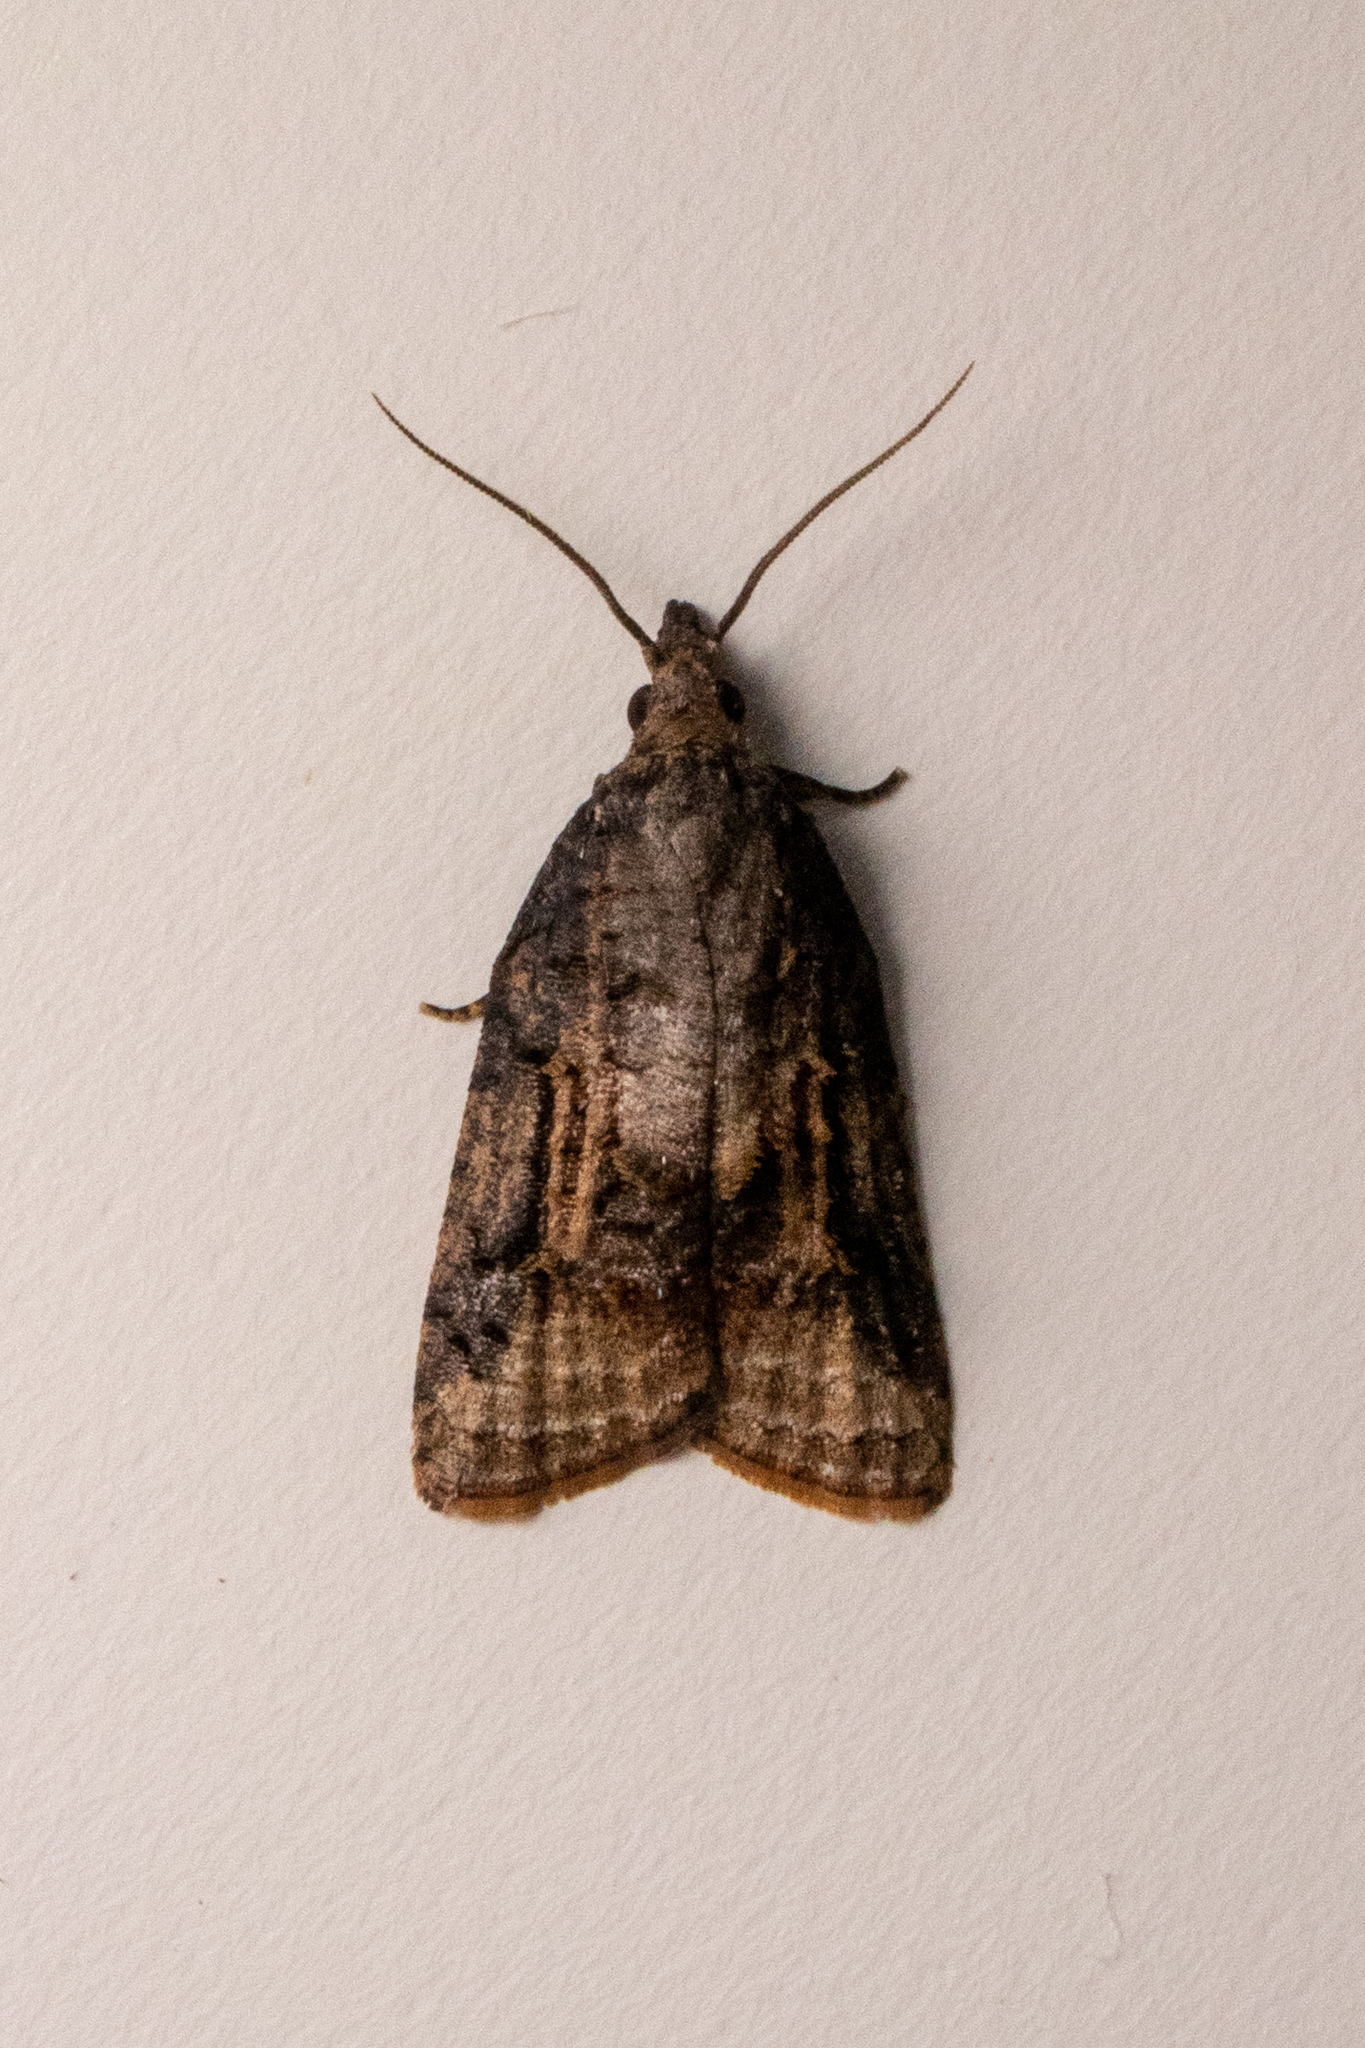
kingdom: Animalia
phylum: Arthropoda
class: Insecta
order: Lepidoptera
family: Tortricidae
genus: Platynota
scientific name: Platynota idaeusalis
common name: Tufted apple bud moth
